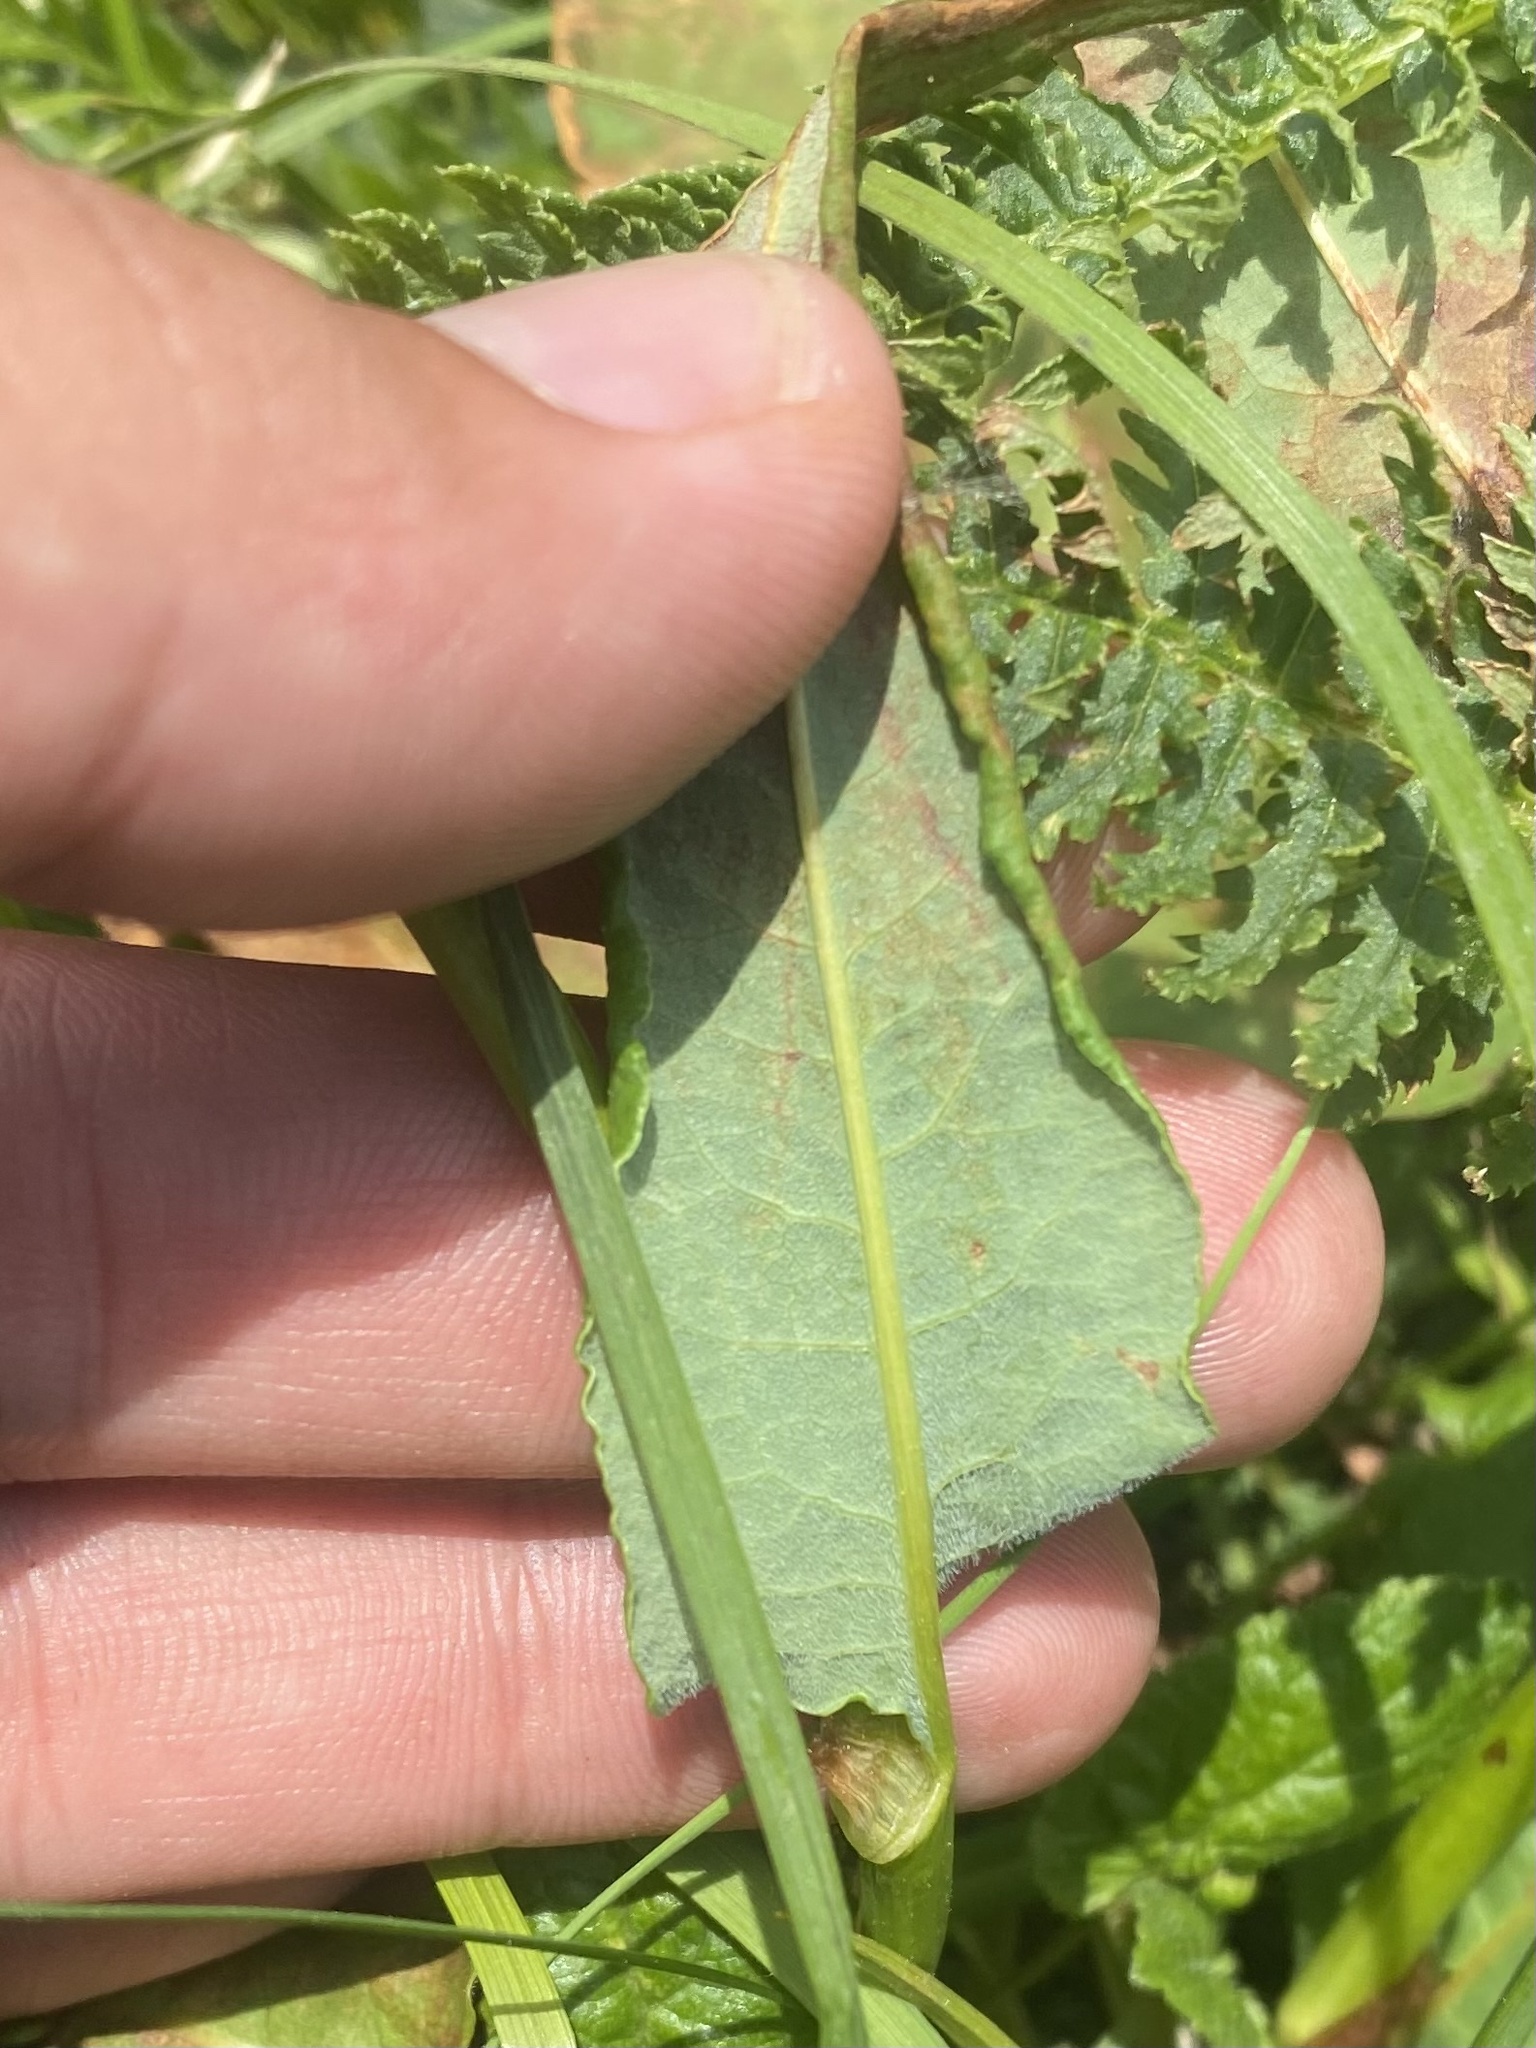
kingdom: Plantae
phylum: Tracheophyta
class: Magnoliopsida
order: Caryophyllales
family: Polygonaceae
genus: Bistorta
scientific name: Bistorta carnea
